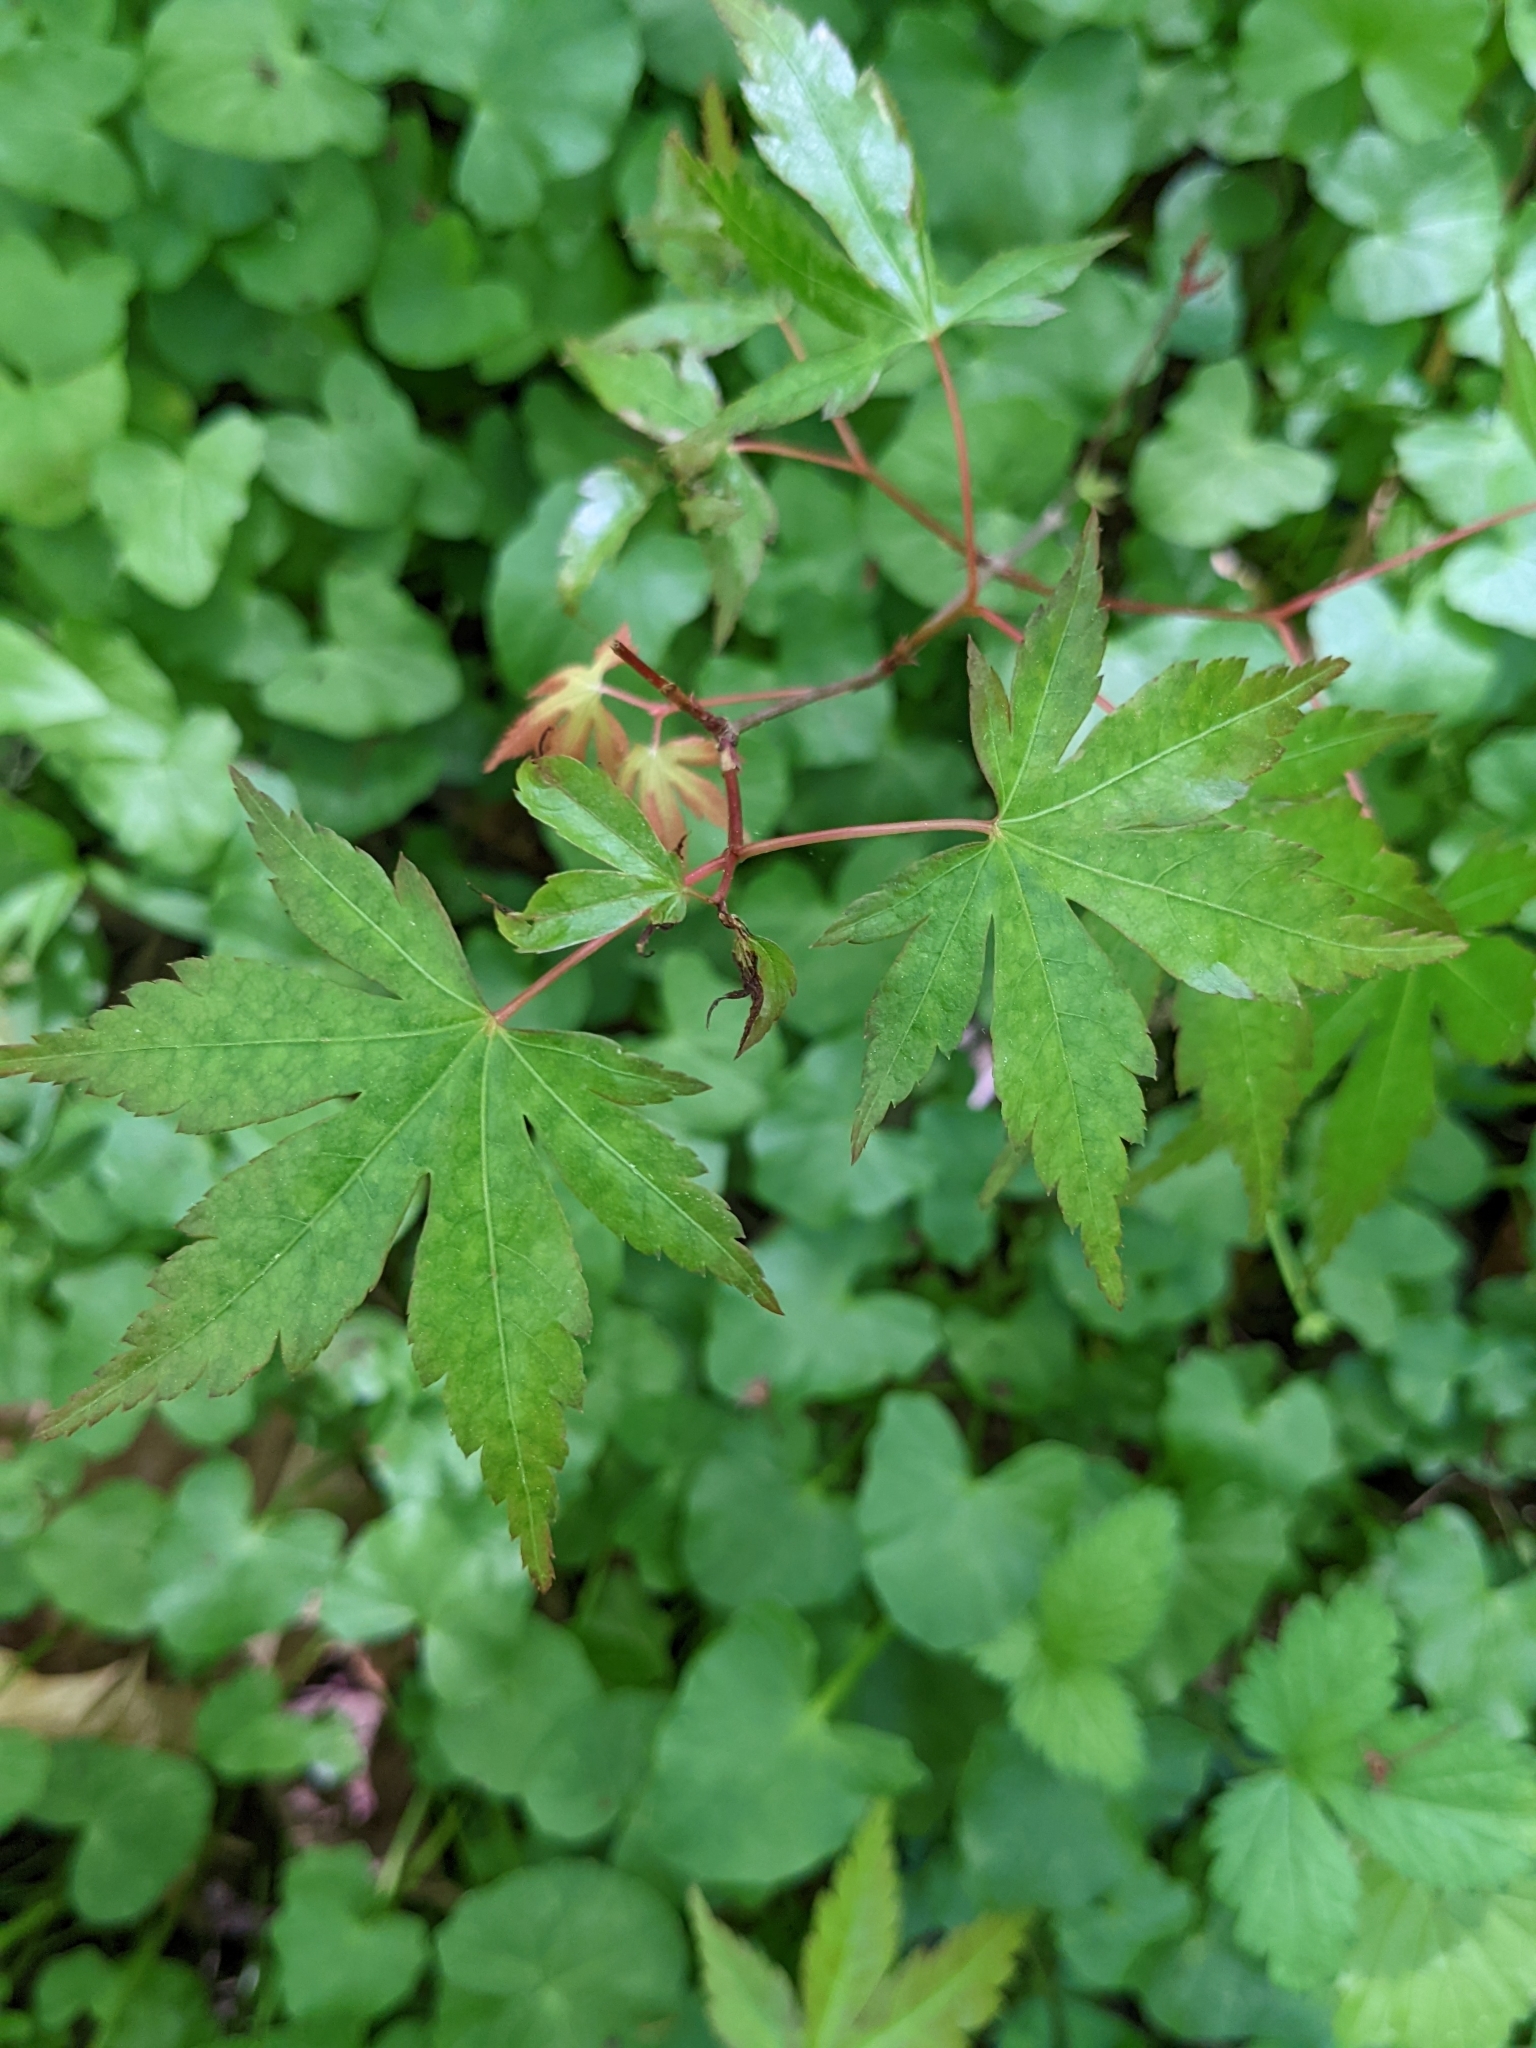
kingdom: Plantae
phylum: Tracheophyta
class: Magnoliopsida
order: Sapindales
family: Sapindaceae
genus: Acer
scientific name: Acer palmatum
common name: Japanese maple
